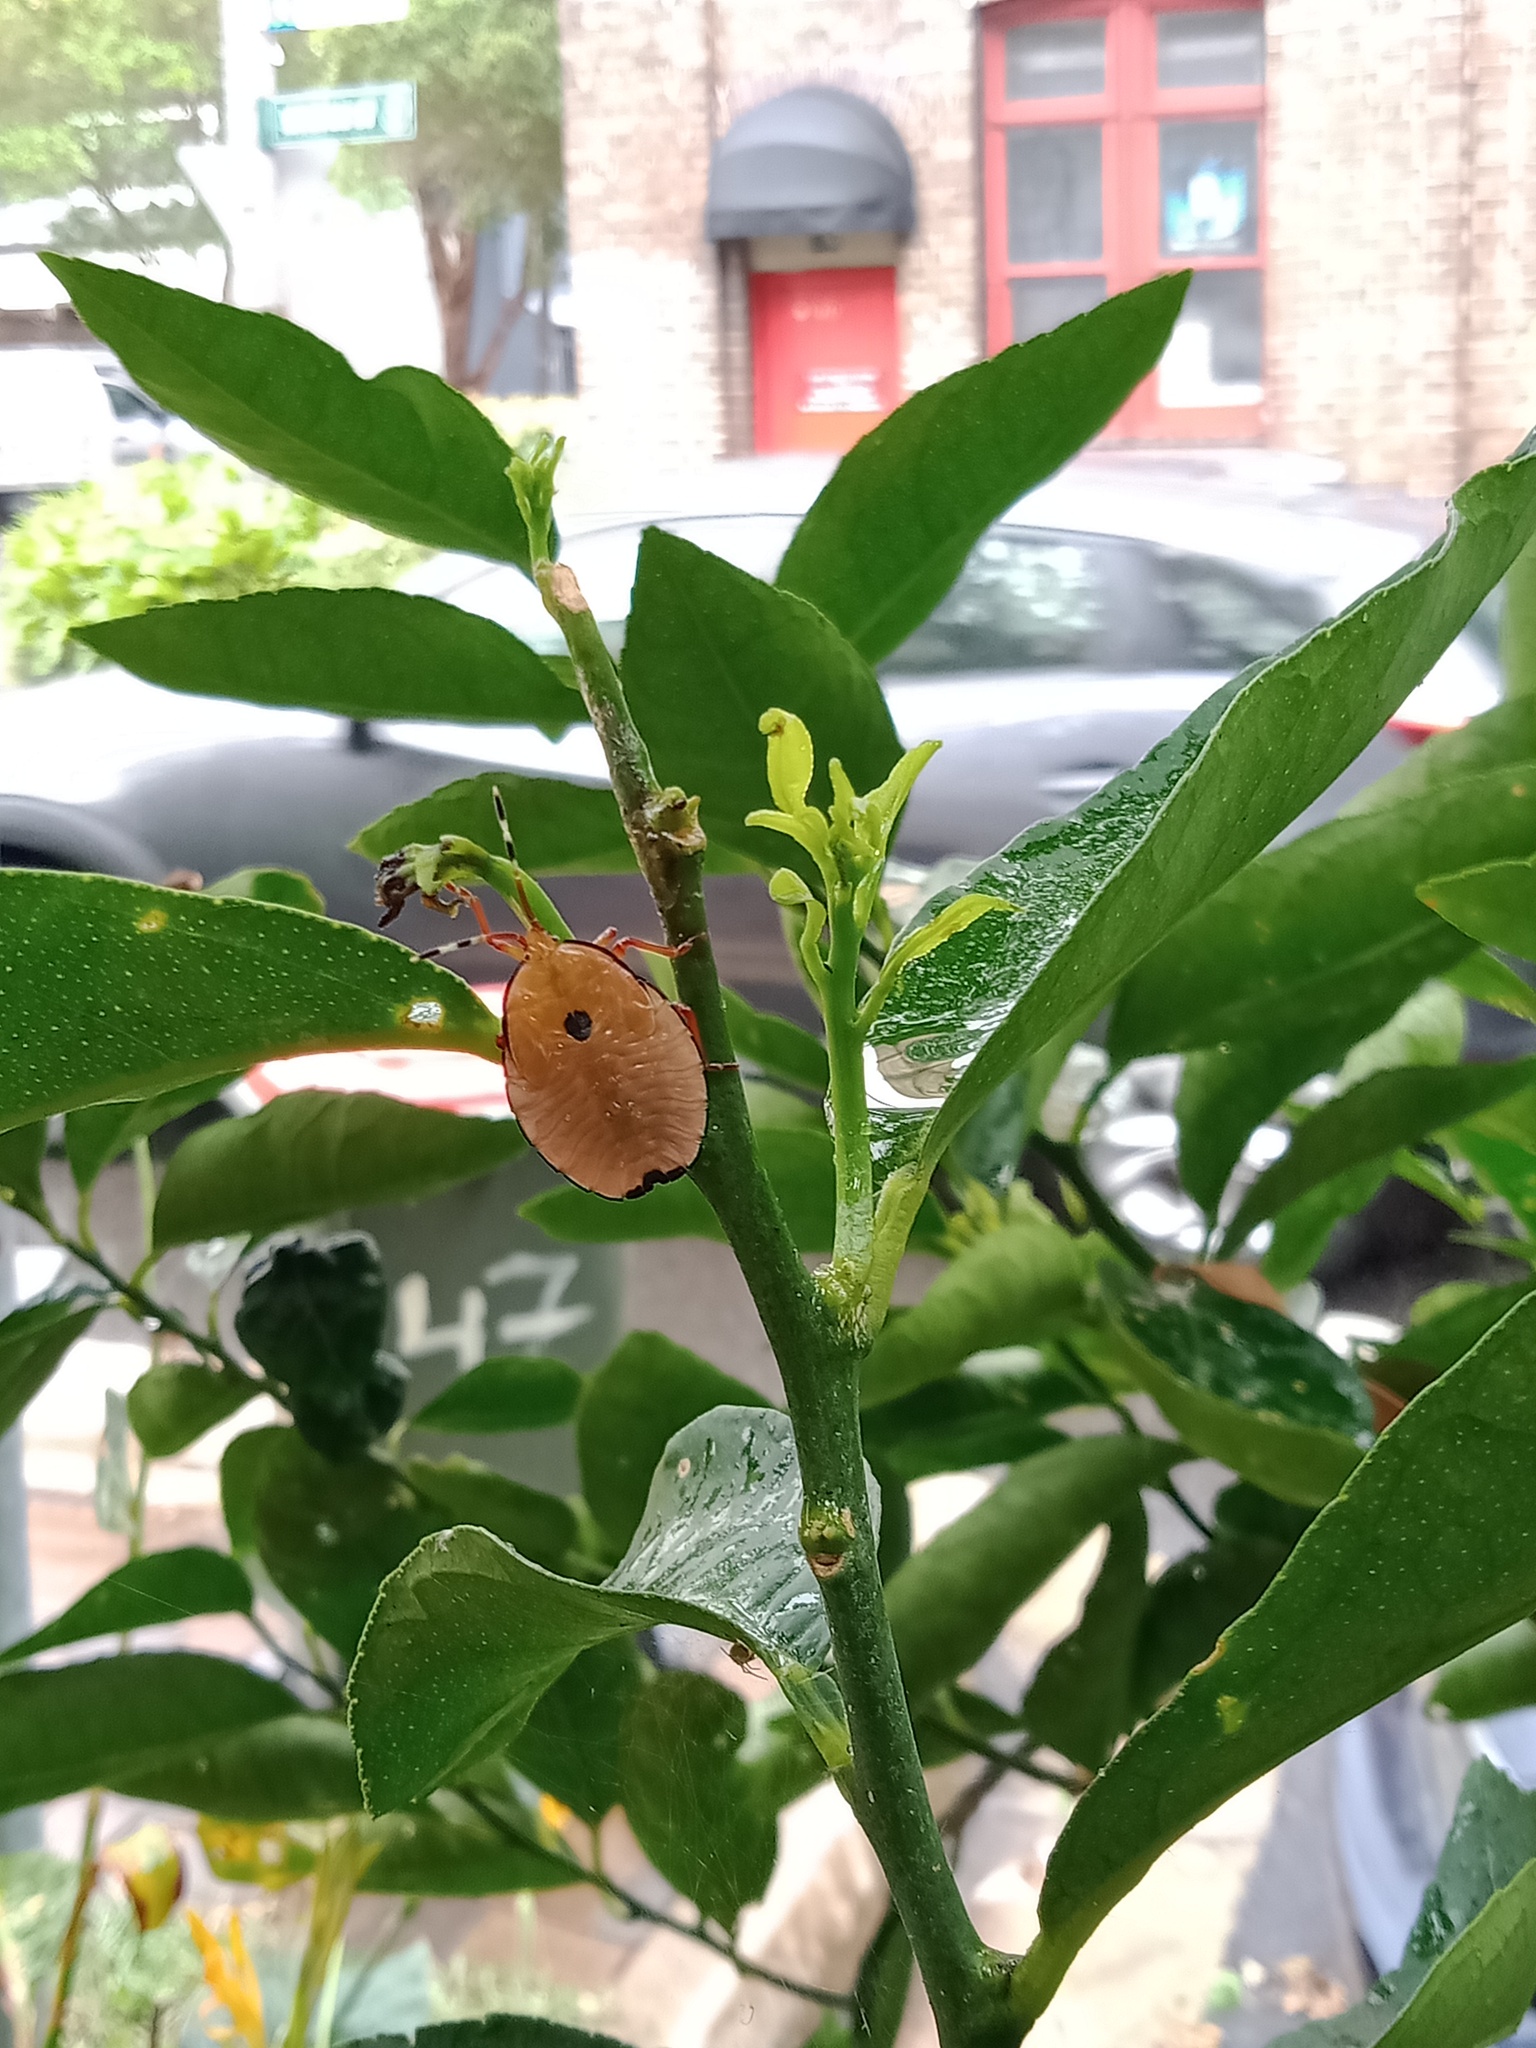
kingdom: Animalia
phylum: Arthropoda
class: Insecta
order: Hemiptera
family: Tessaratomidae
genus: Musgraveia
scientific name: Musgraveia sulciventris
